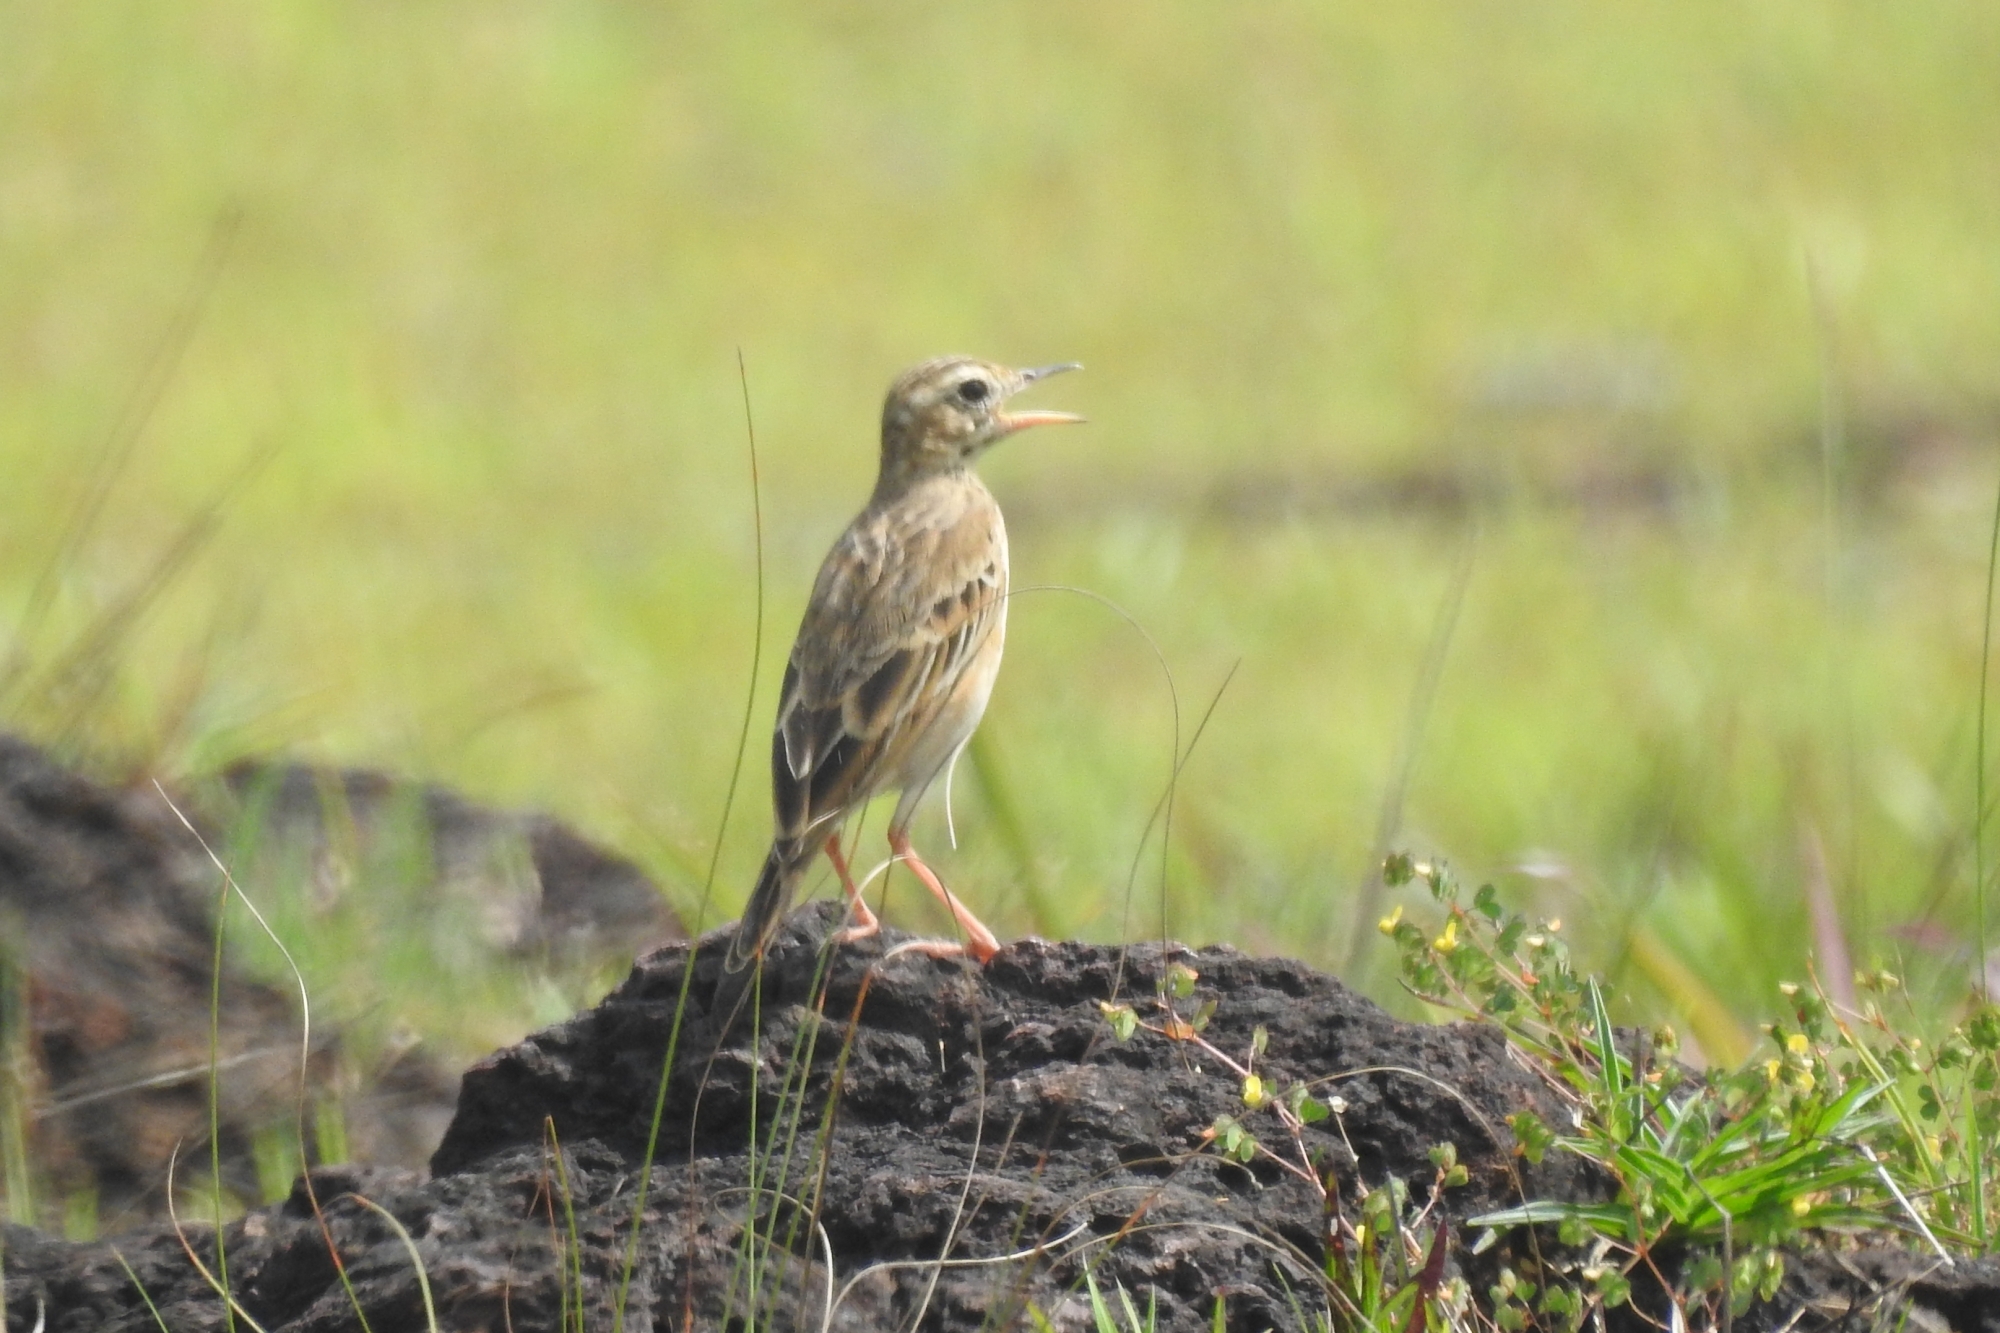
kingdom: Animalia
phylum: Chordata
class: Aves
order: Passeriformes
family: Motacillidae
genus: Anthus
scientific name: Anthus rufulus
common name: Paddyfield pipit
